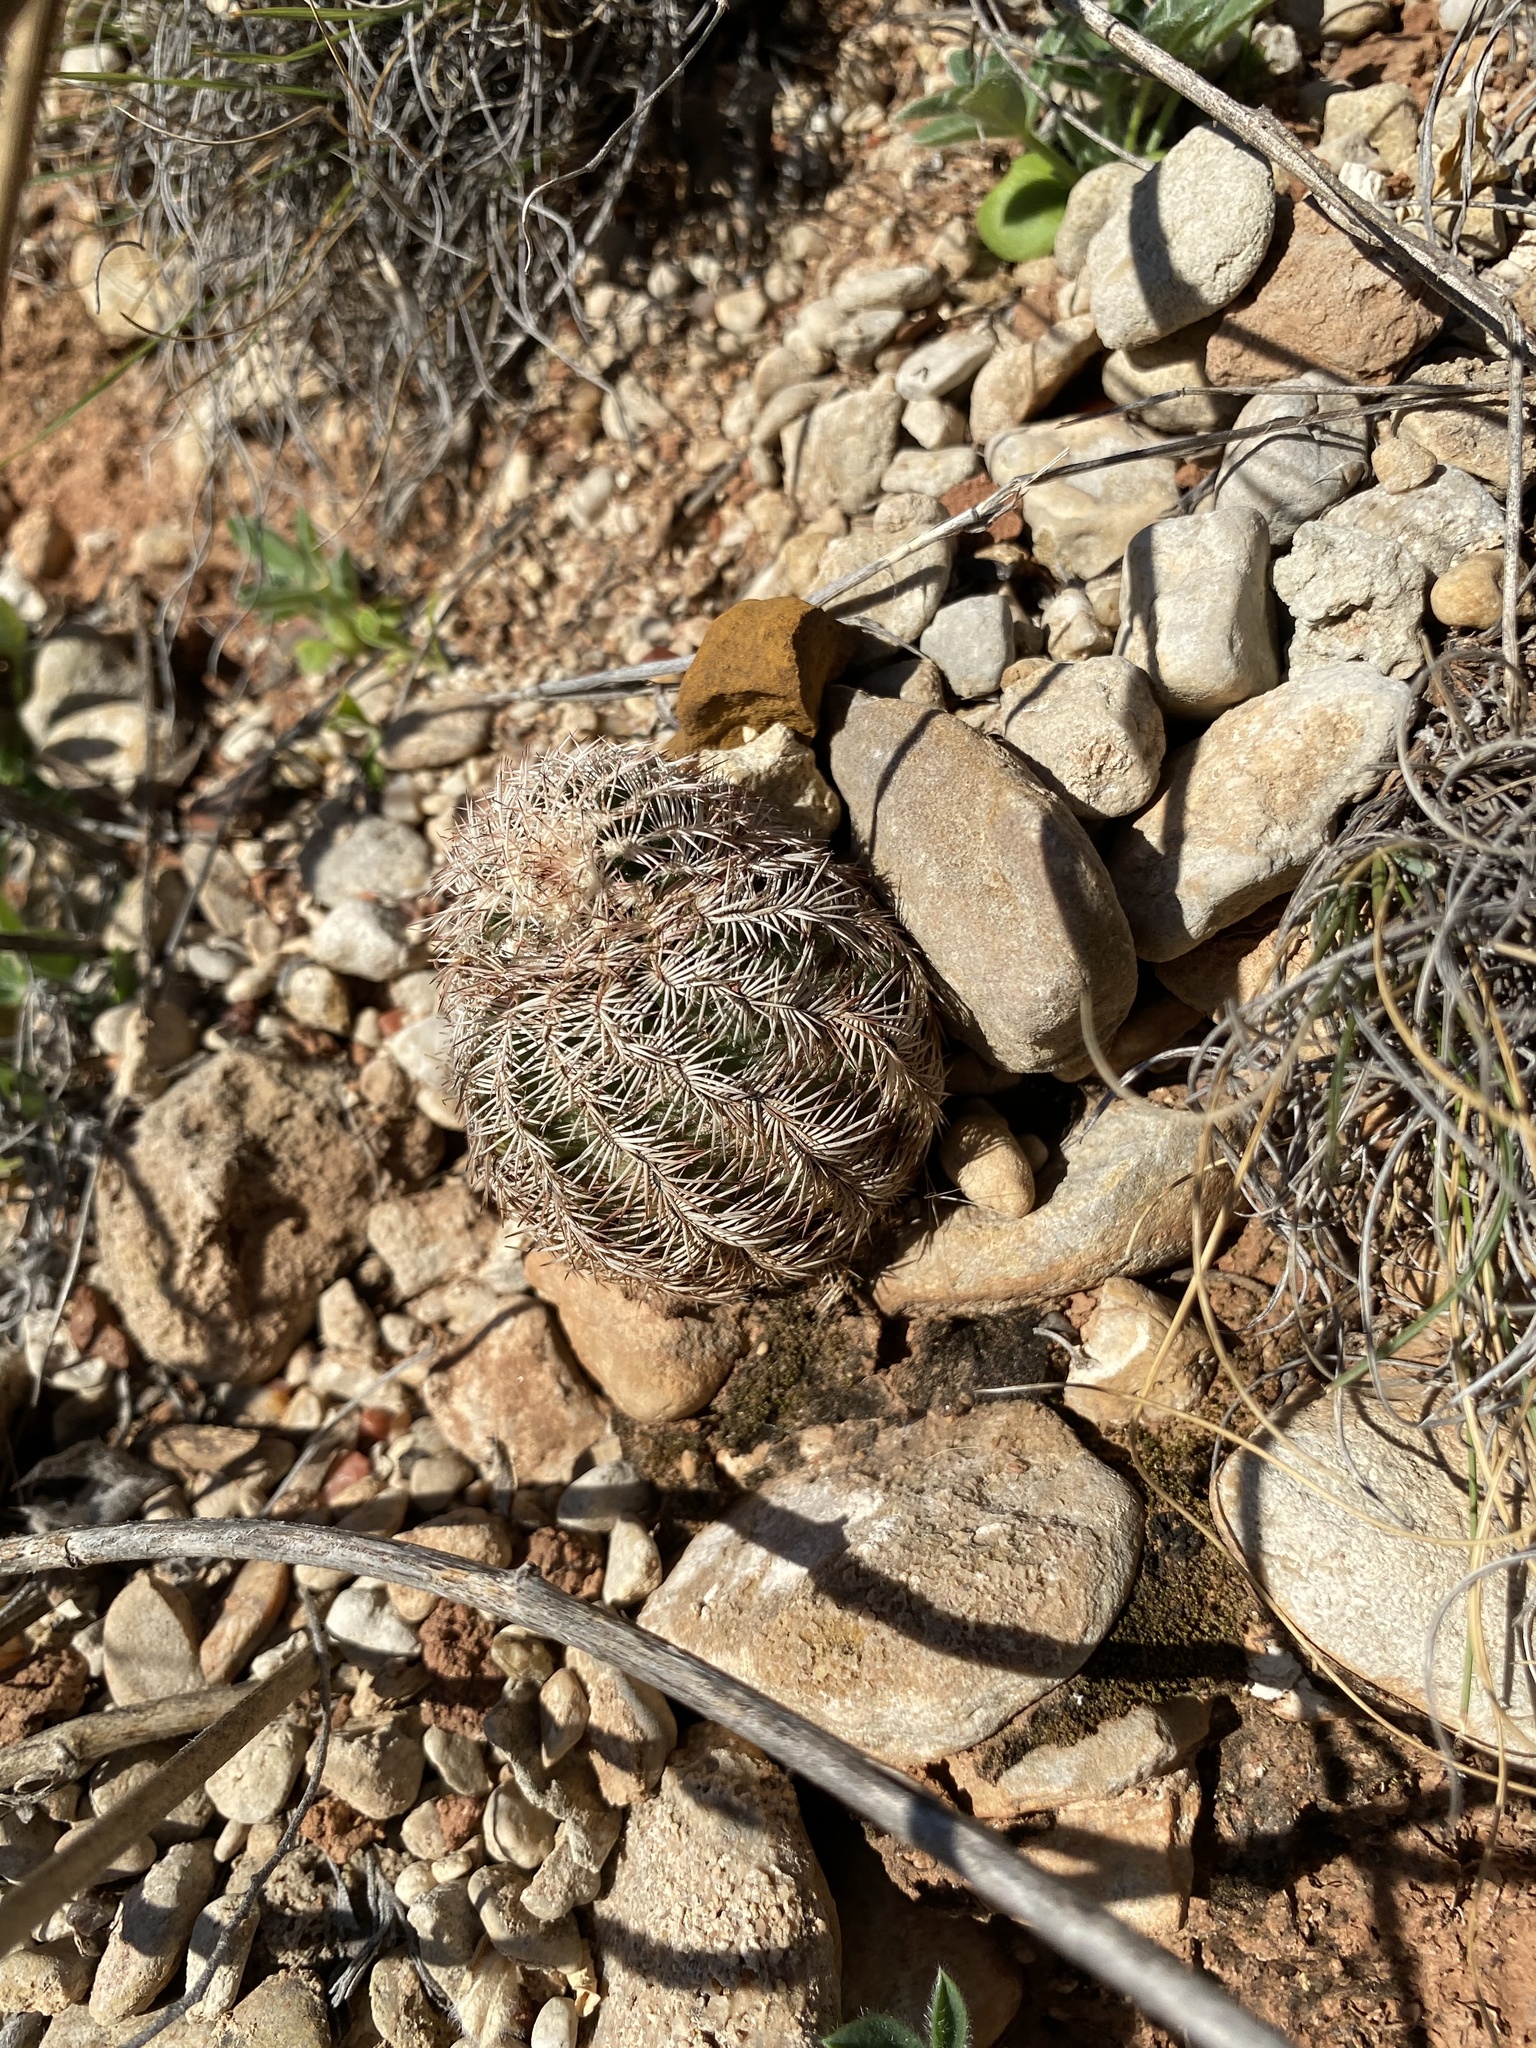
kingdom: Plantae
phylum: Tracheophyta
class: Magnoliopsida
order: Caryophyllales
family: Cactaceae
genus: Echinocereus
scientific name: Echinocereus reichenbachii
